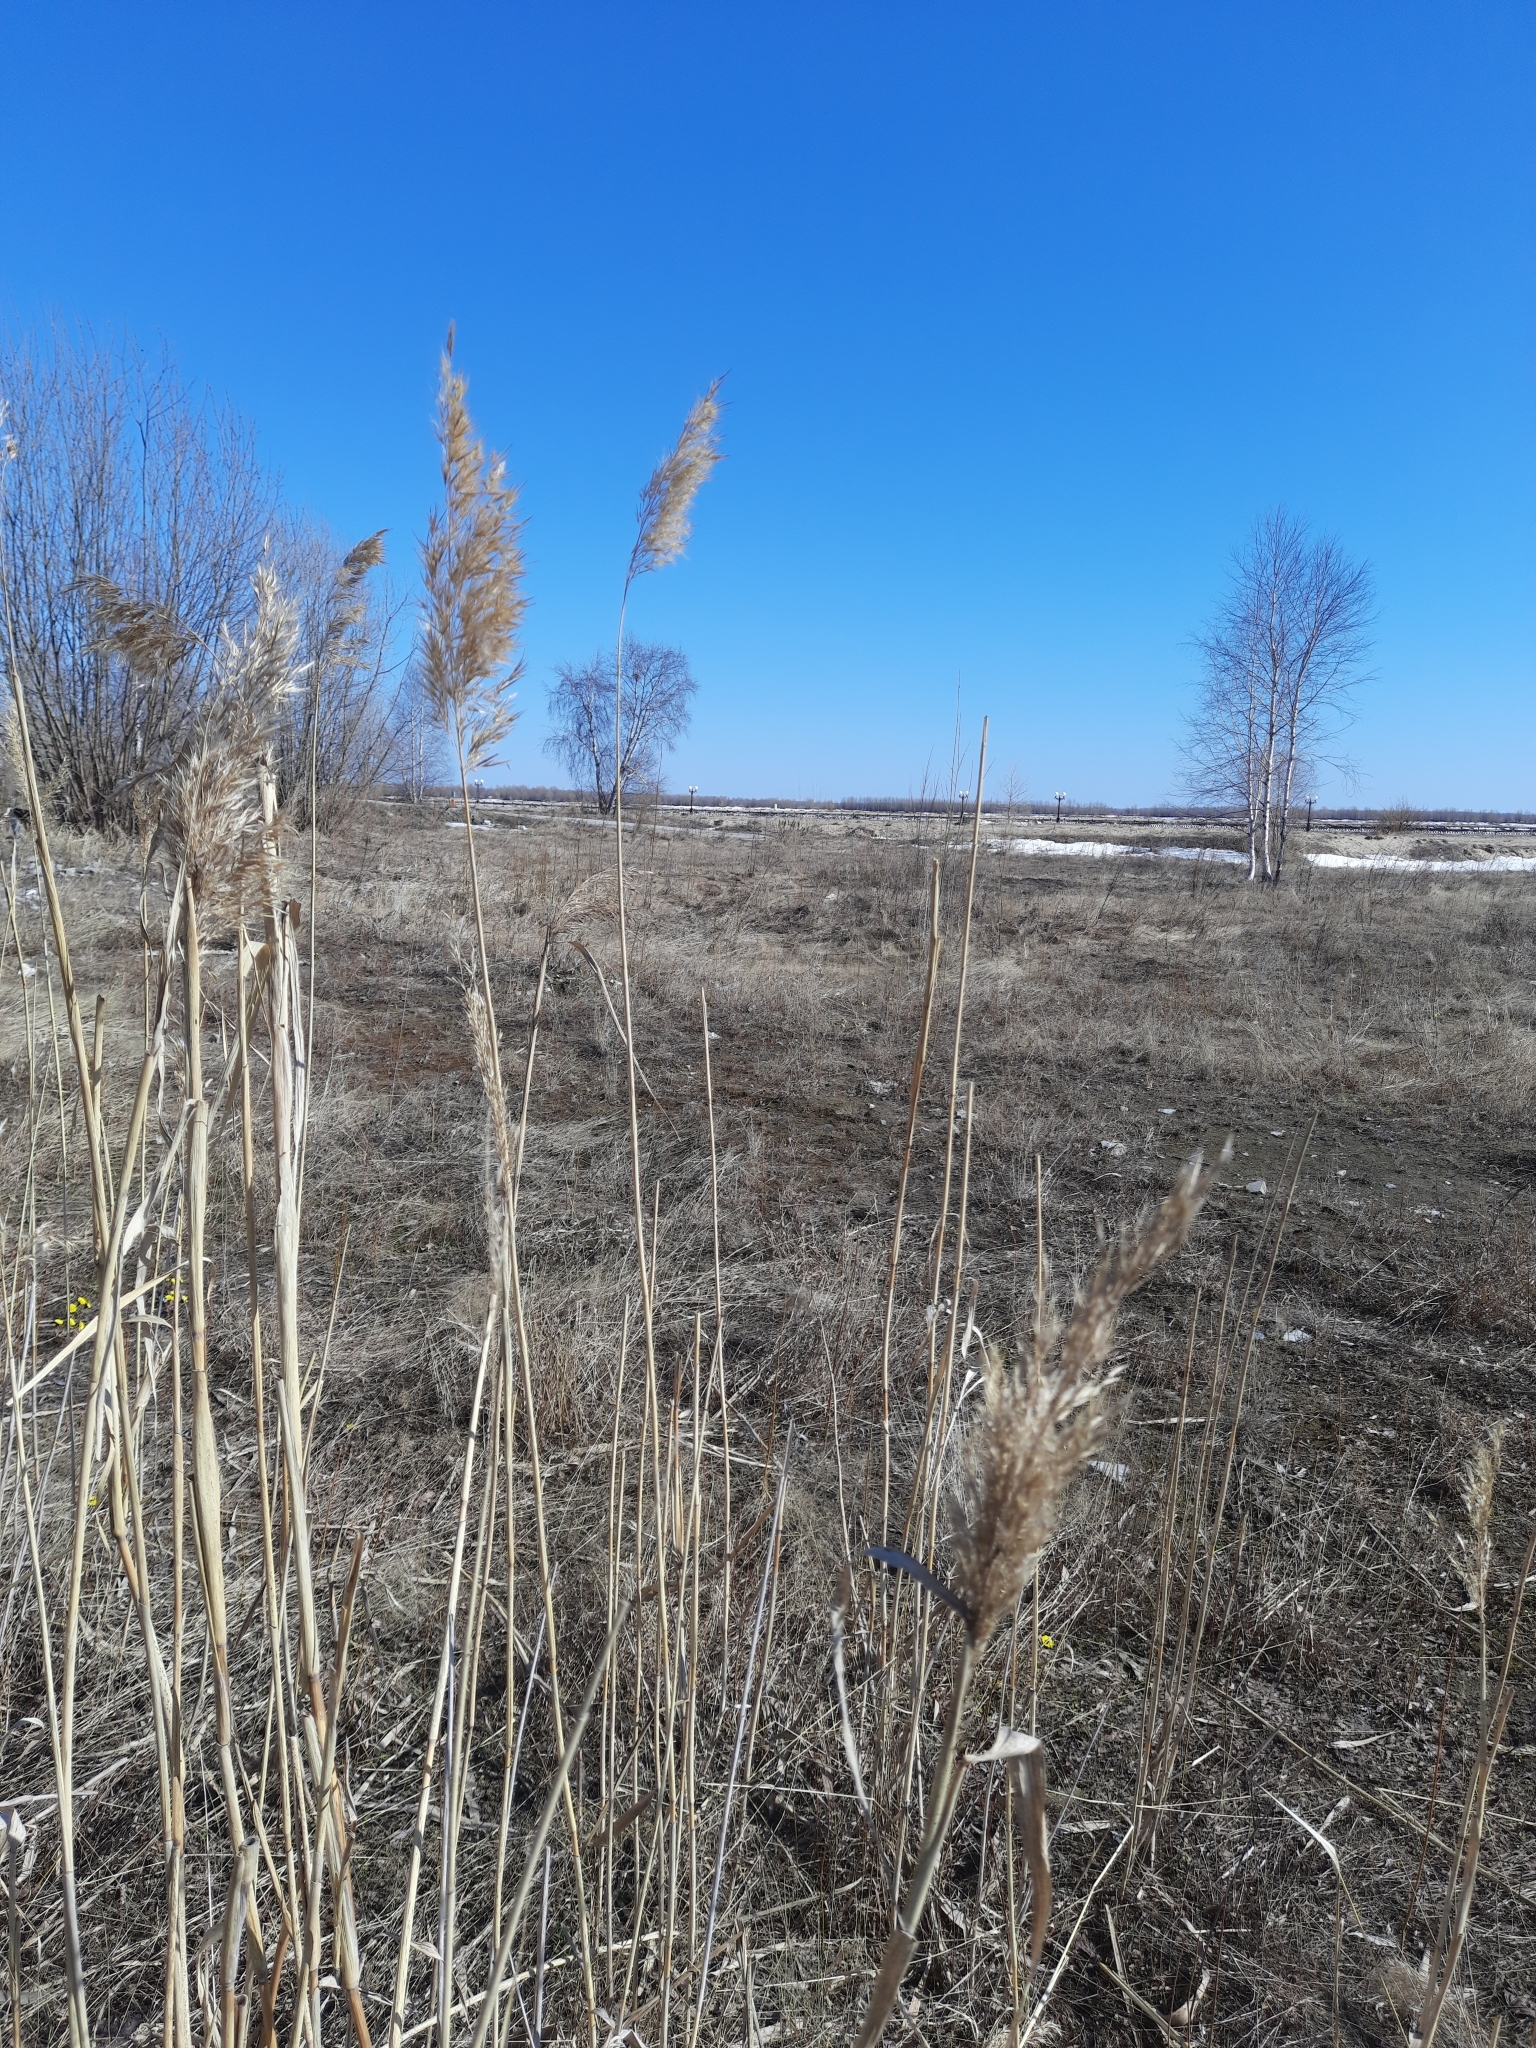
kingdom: Plantae
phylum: Tracheophyta
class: Liliopsida
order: Poales
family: Poaceae
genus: Phragmites
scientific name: Phragmites australis
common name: Common reed
